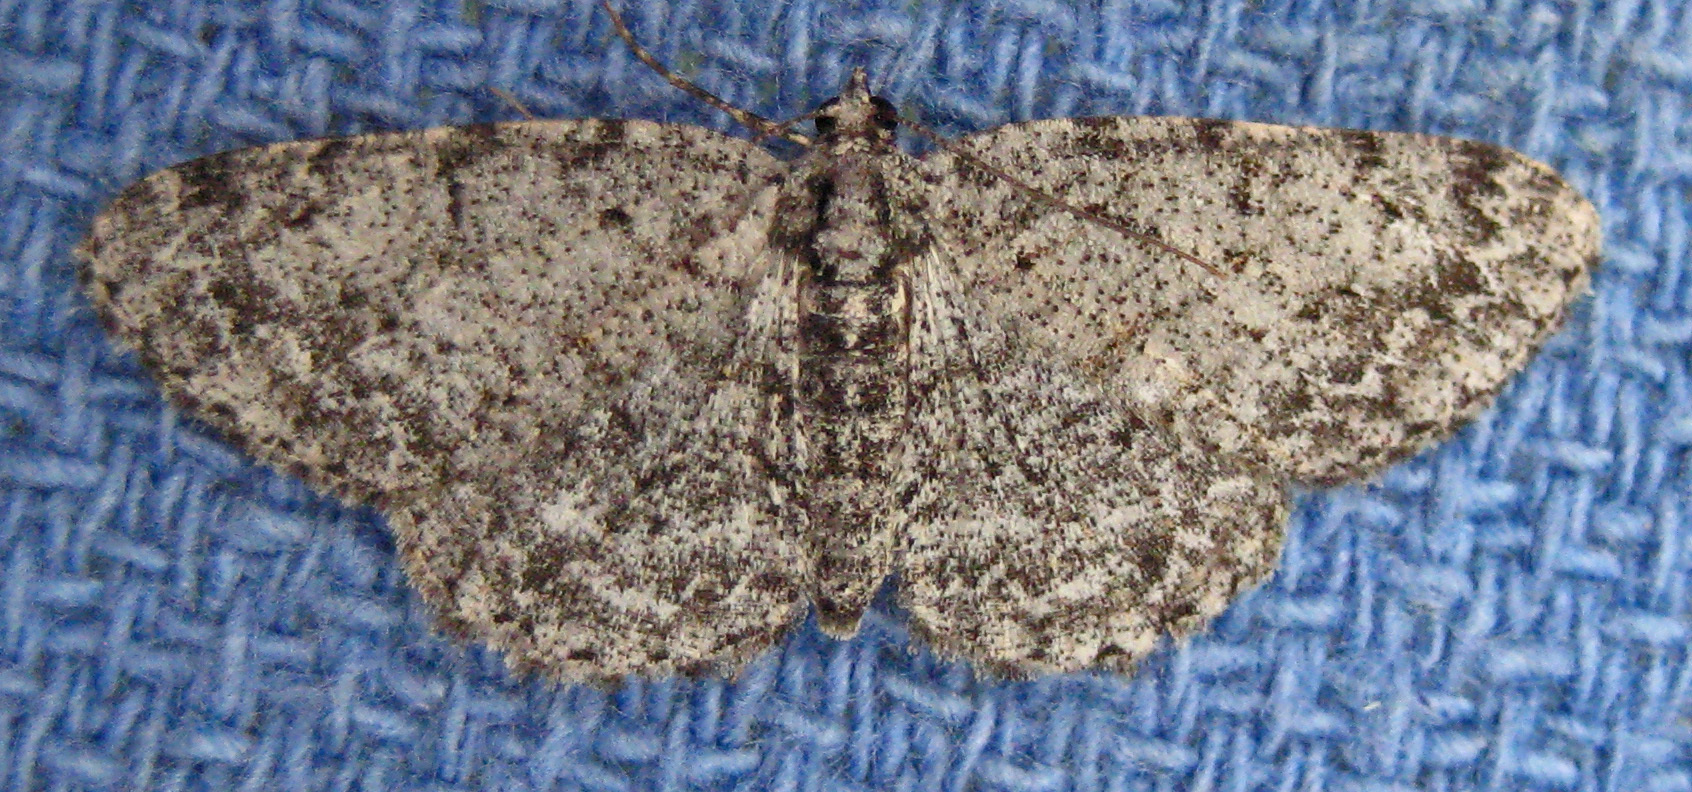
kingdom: Animalia
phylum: Arthropoda
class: Insecta
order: Lepidoptera
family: Geometridae
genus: Protoboarmia
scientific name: Protoboarmia porcelaria
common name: Porcelain gray
